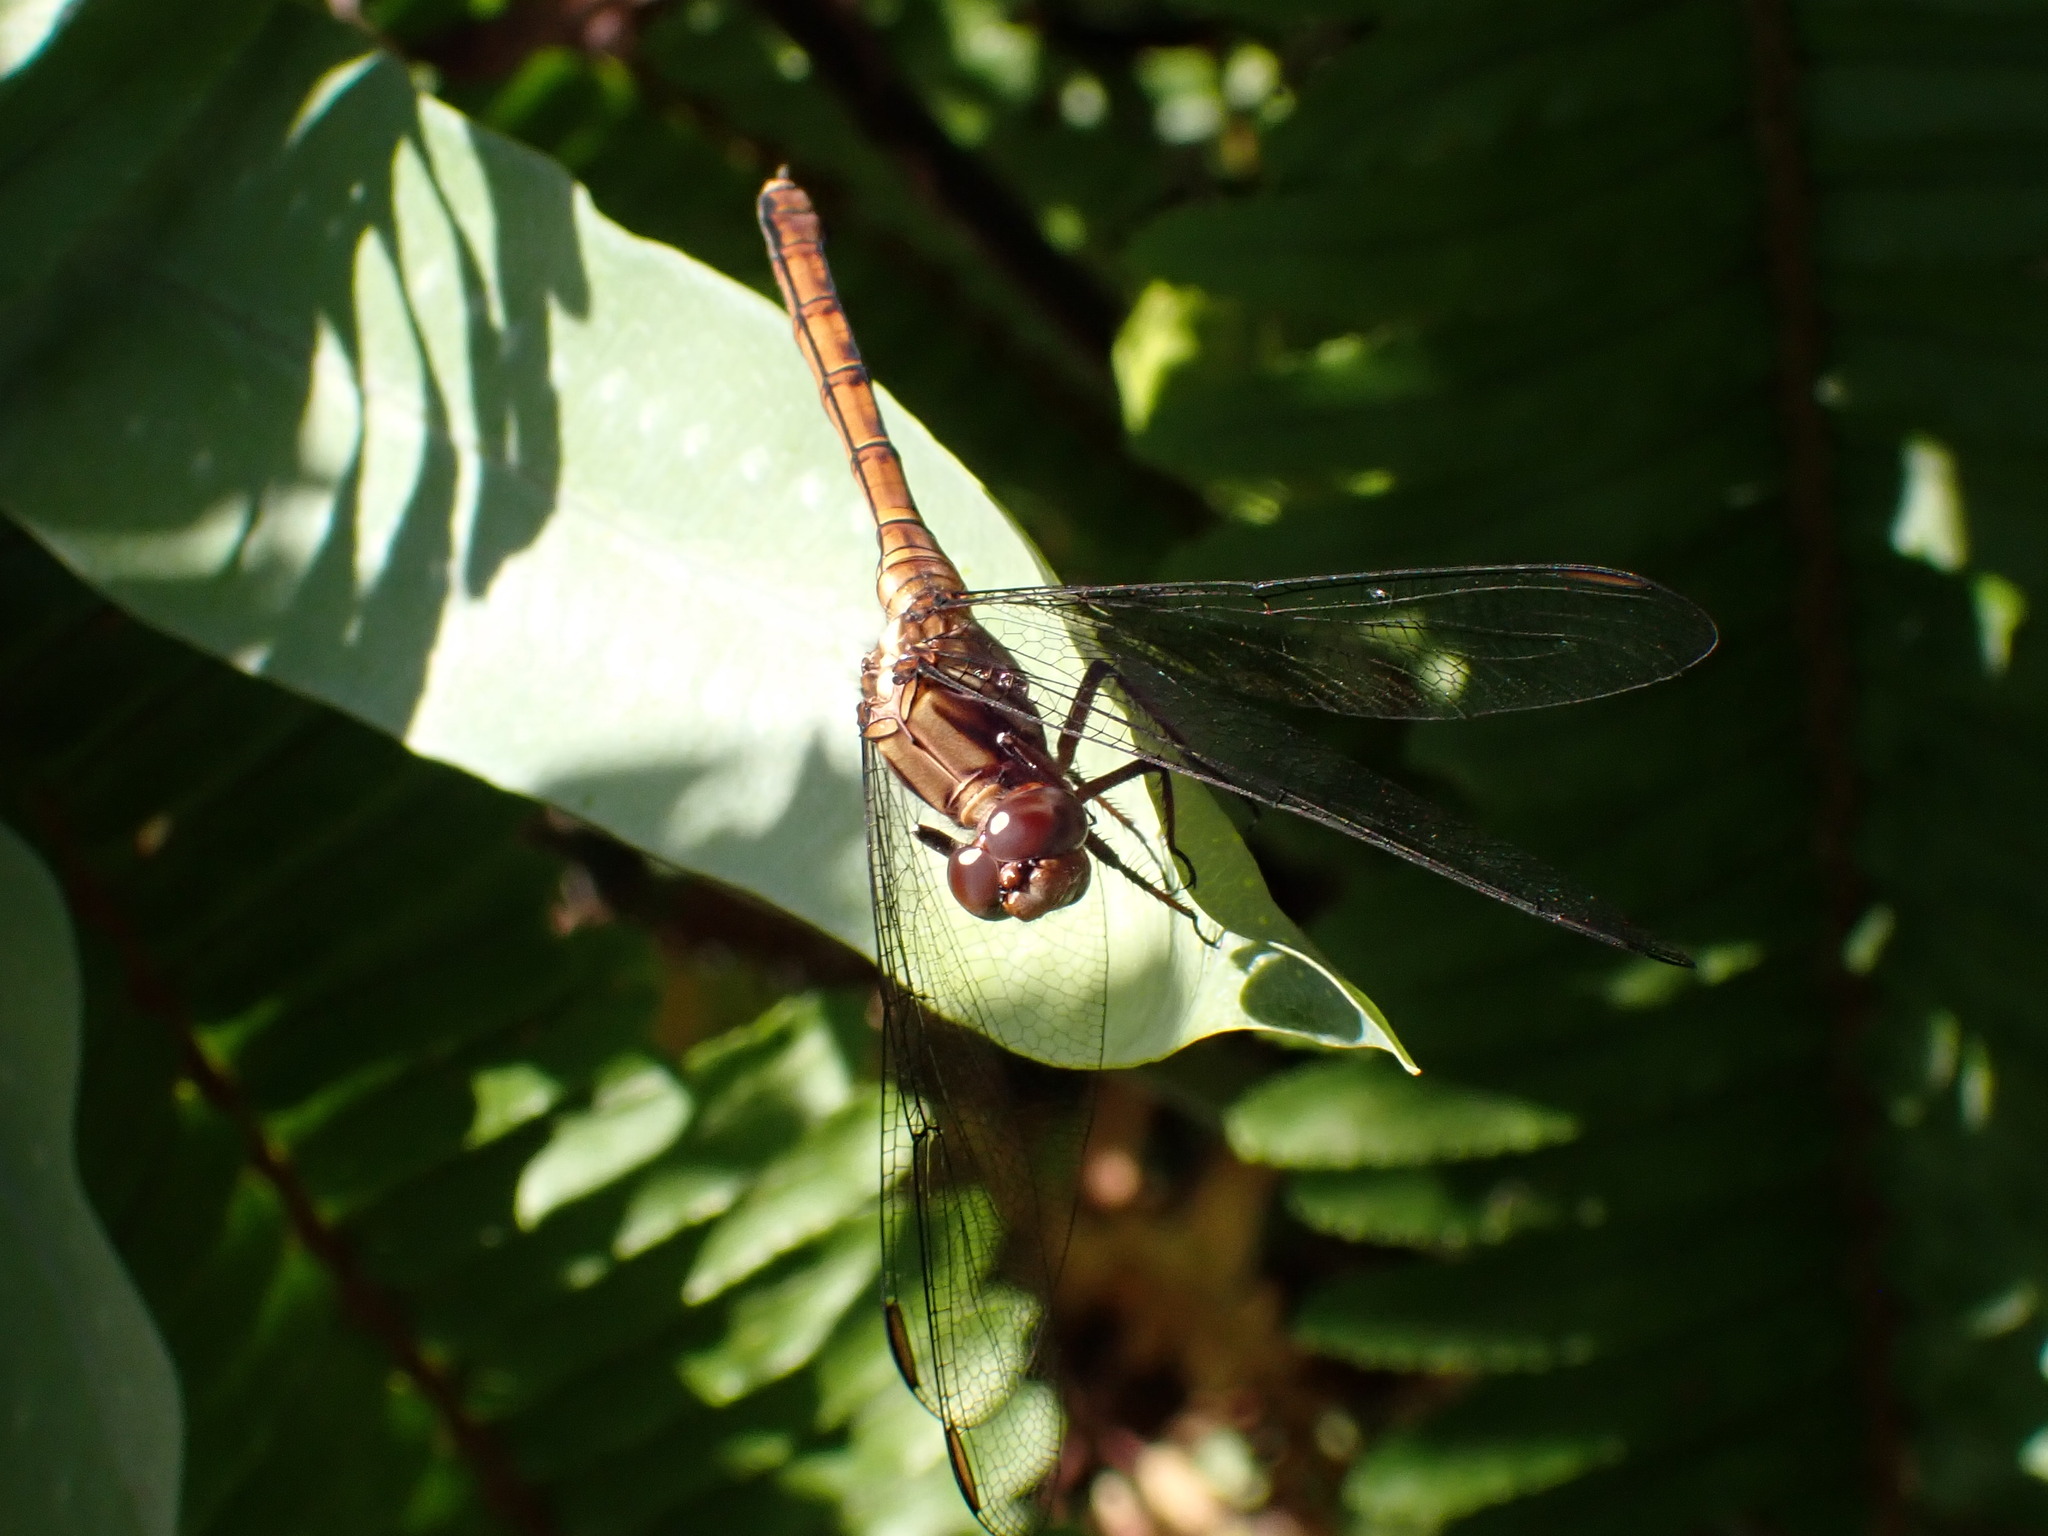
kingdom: Animalia
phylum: Arthropoda
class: Insecta
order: Odonata
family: Libellulidae
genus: Orthetrum
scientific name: Orthetrum julia
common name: Julia skimmer
